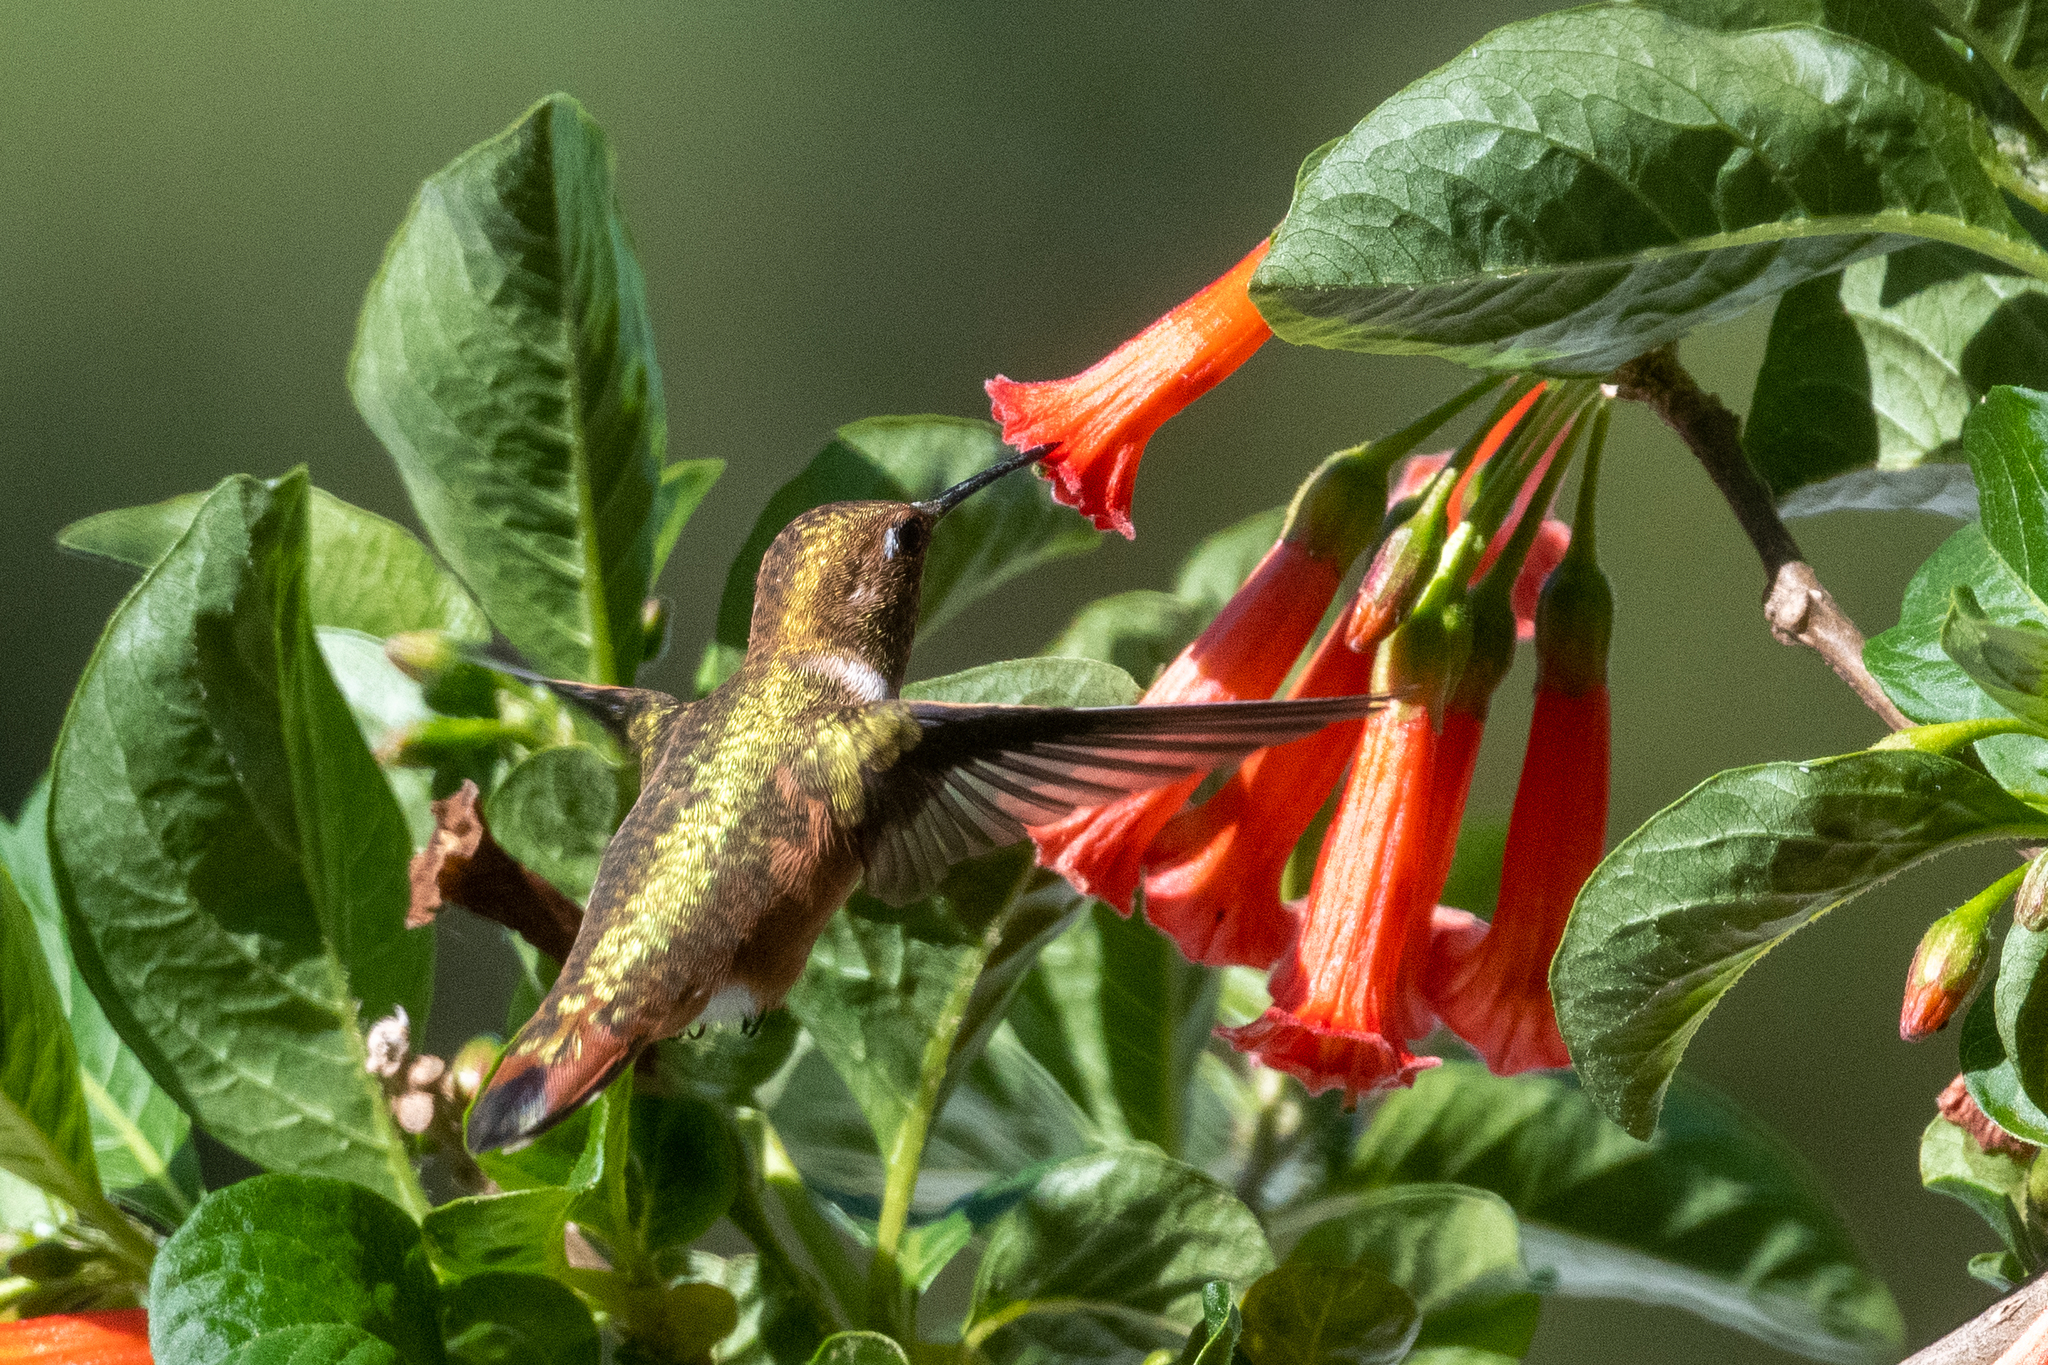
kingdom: Animalia
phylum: Chordata
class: Aves
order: Apodiformes
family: Trochilidae
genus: Selasphorus
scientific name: Selasphorus
